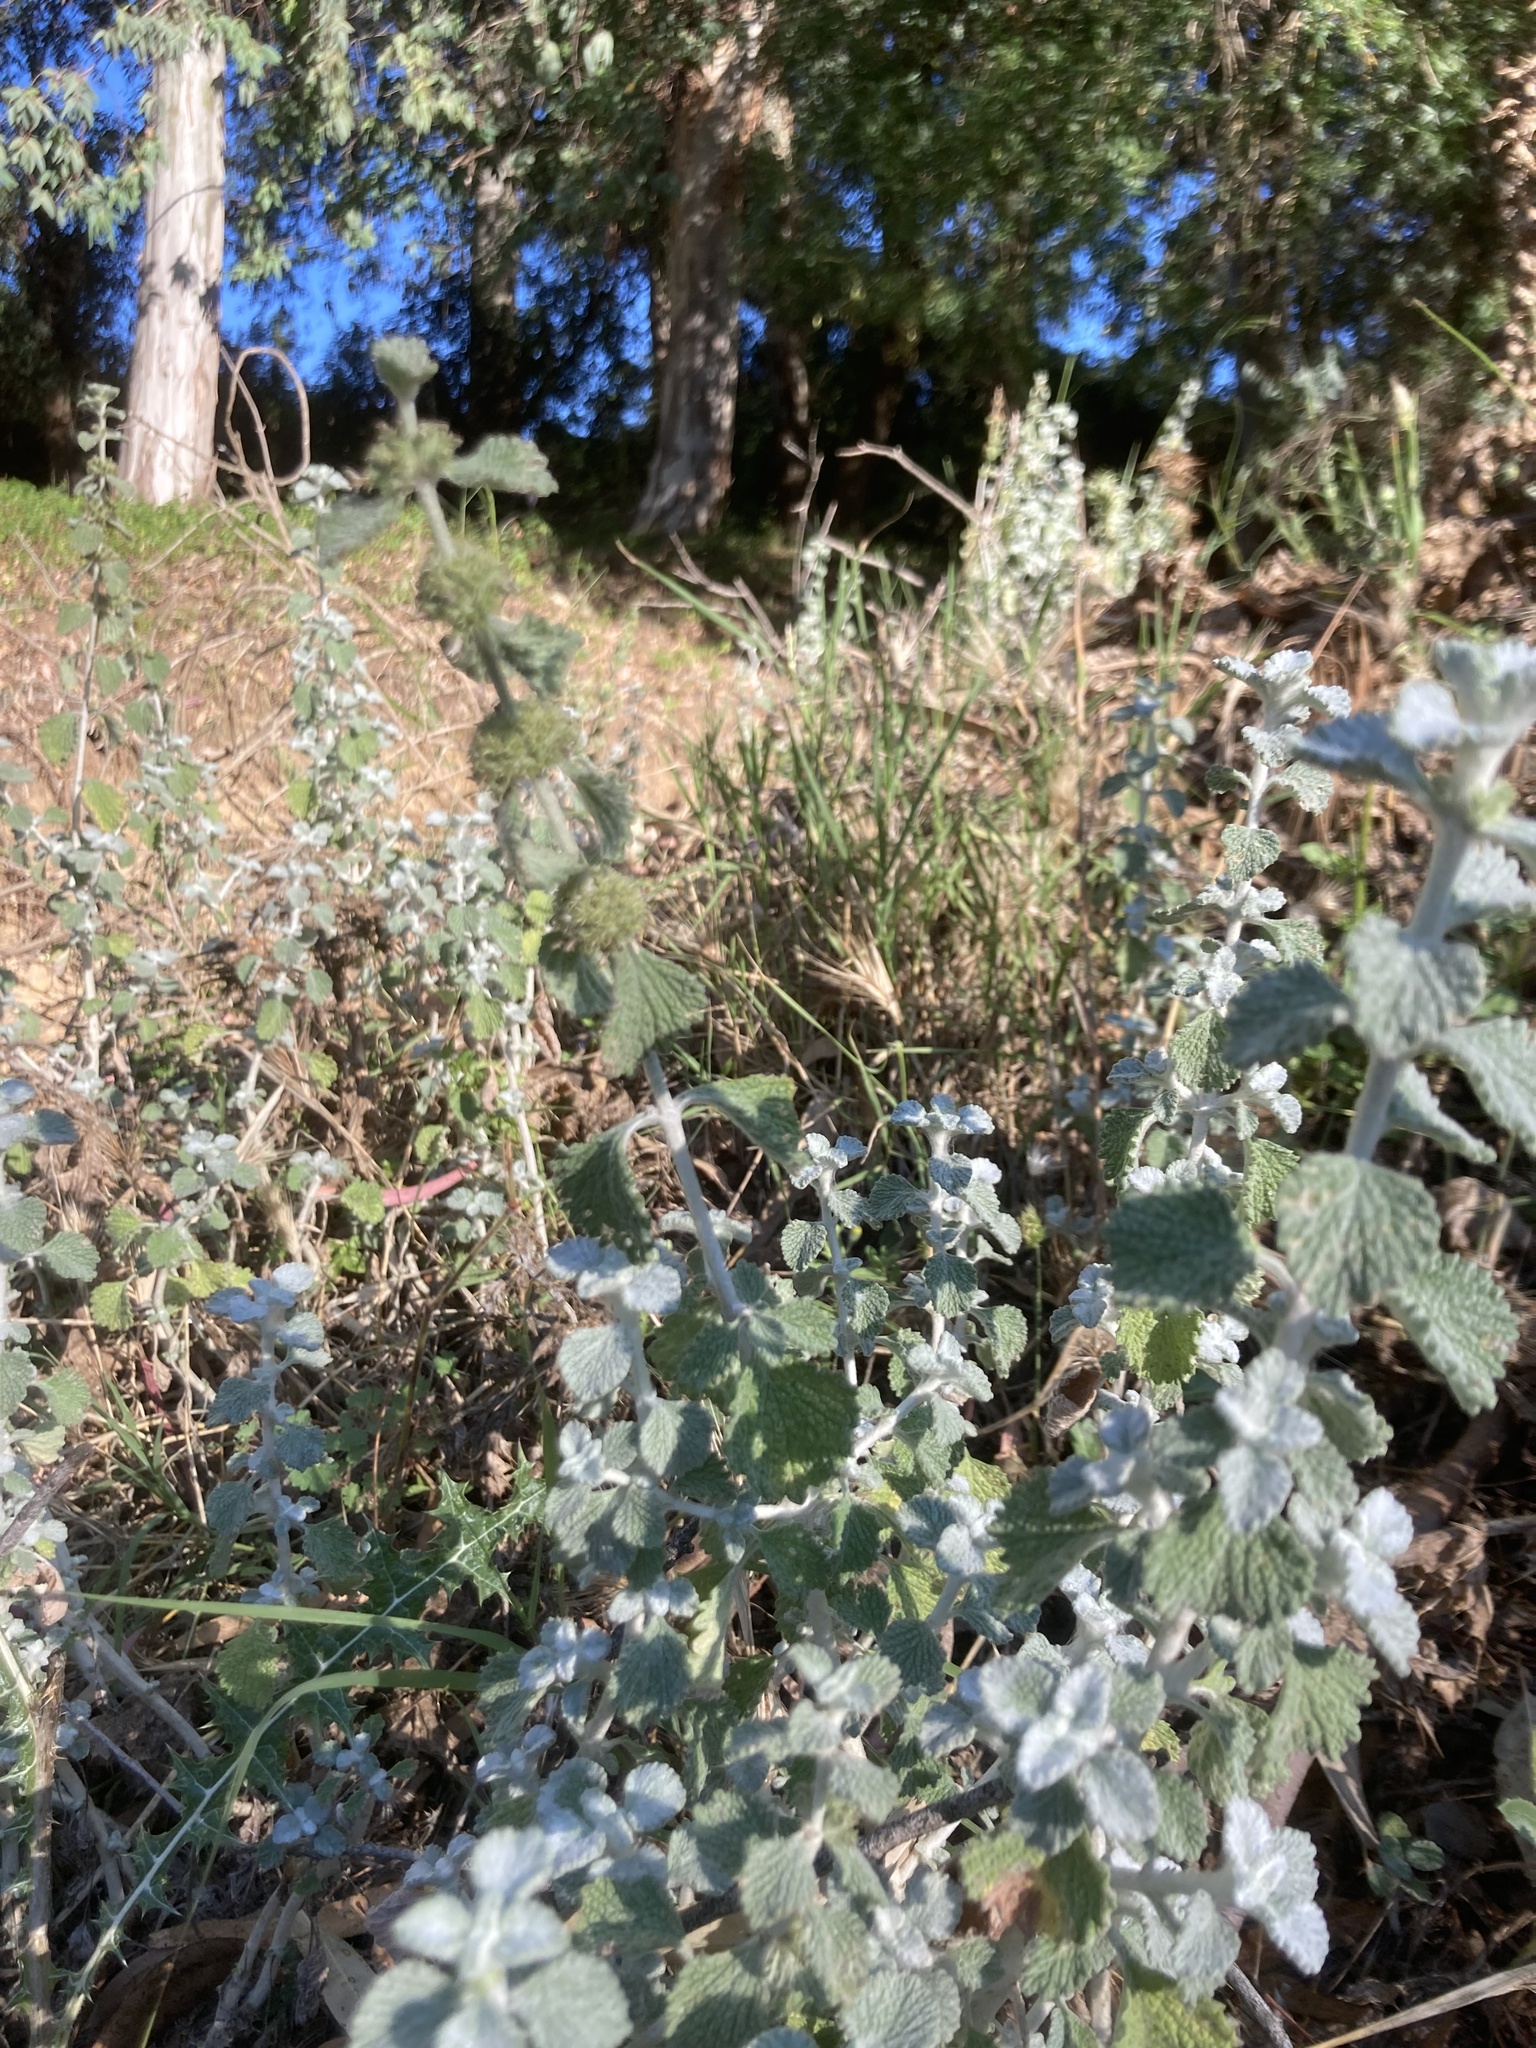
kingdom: Plantae
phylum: Tracheophyta
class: Magnoliopsida
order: Lamiales
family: Lamiaceae
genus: Marrubium
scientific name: Marrubium vulgare
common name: Horehound
